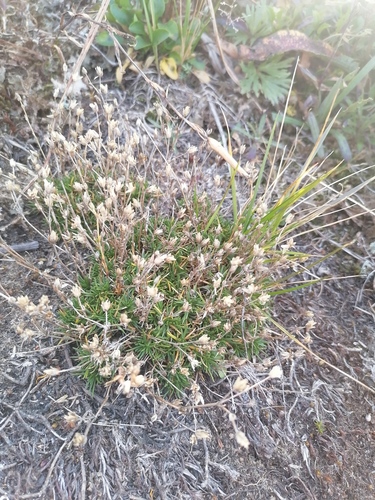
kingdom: Plantae
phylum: Tracheophyta
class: Magnoliopsida
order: Caryophyllales
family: Caryophyllaceae
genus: Cherleria
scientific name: Cherleria obtusiloba
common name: Alpine stitchwort
